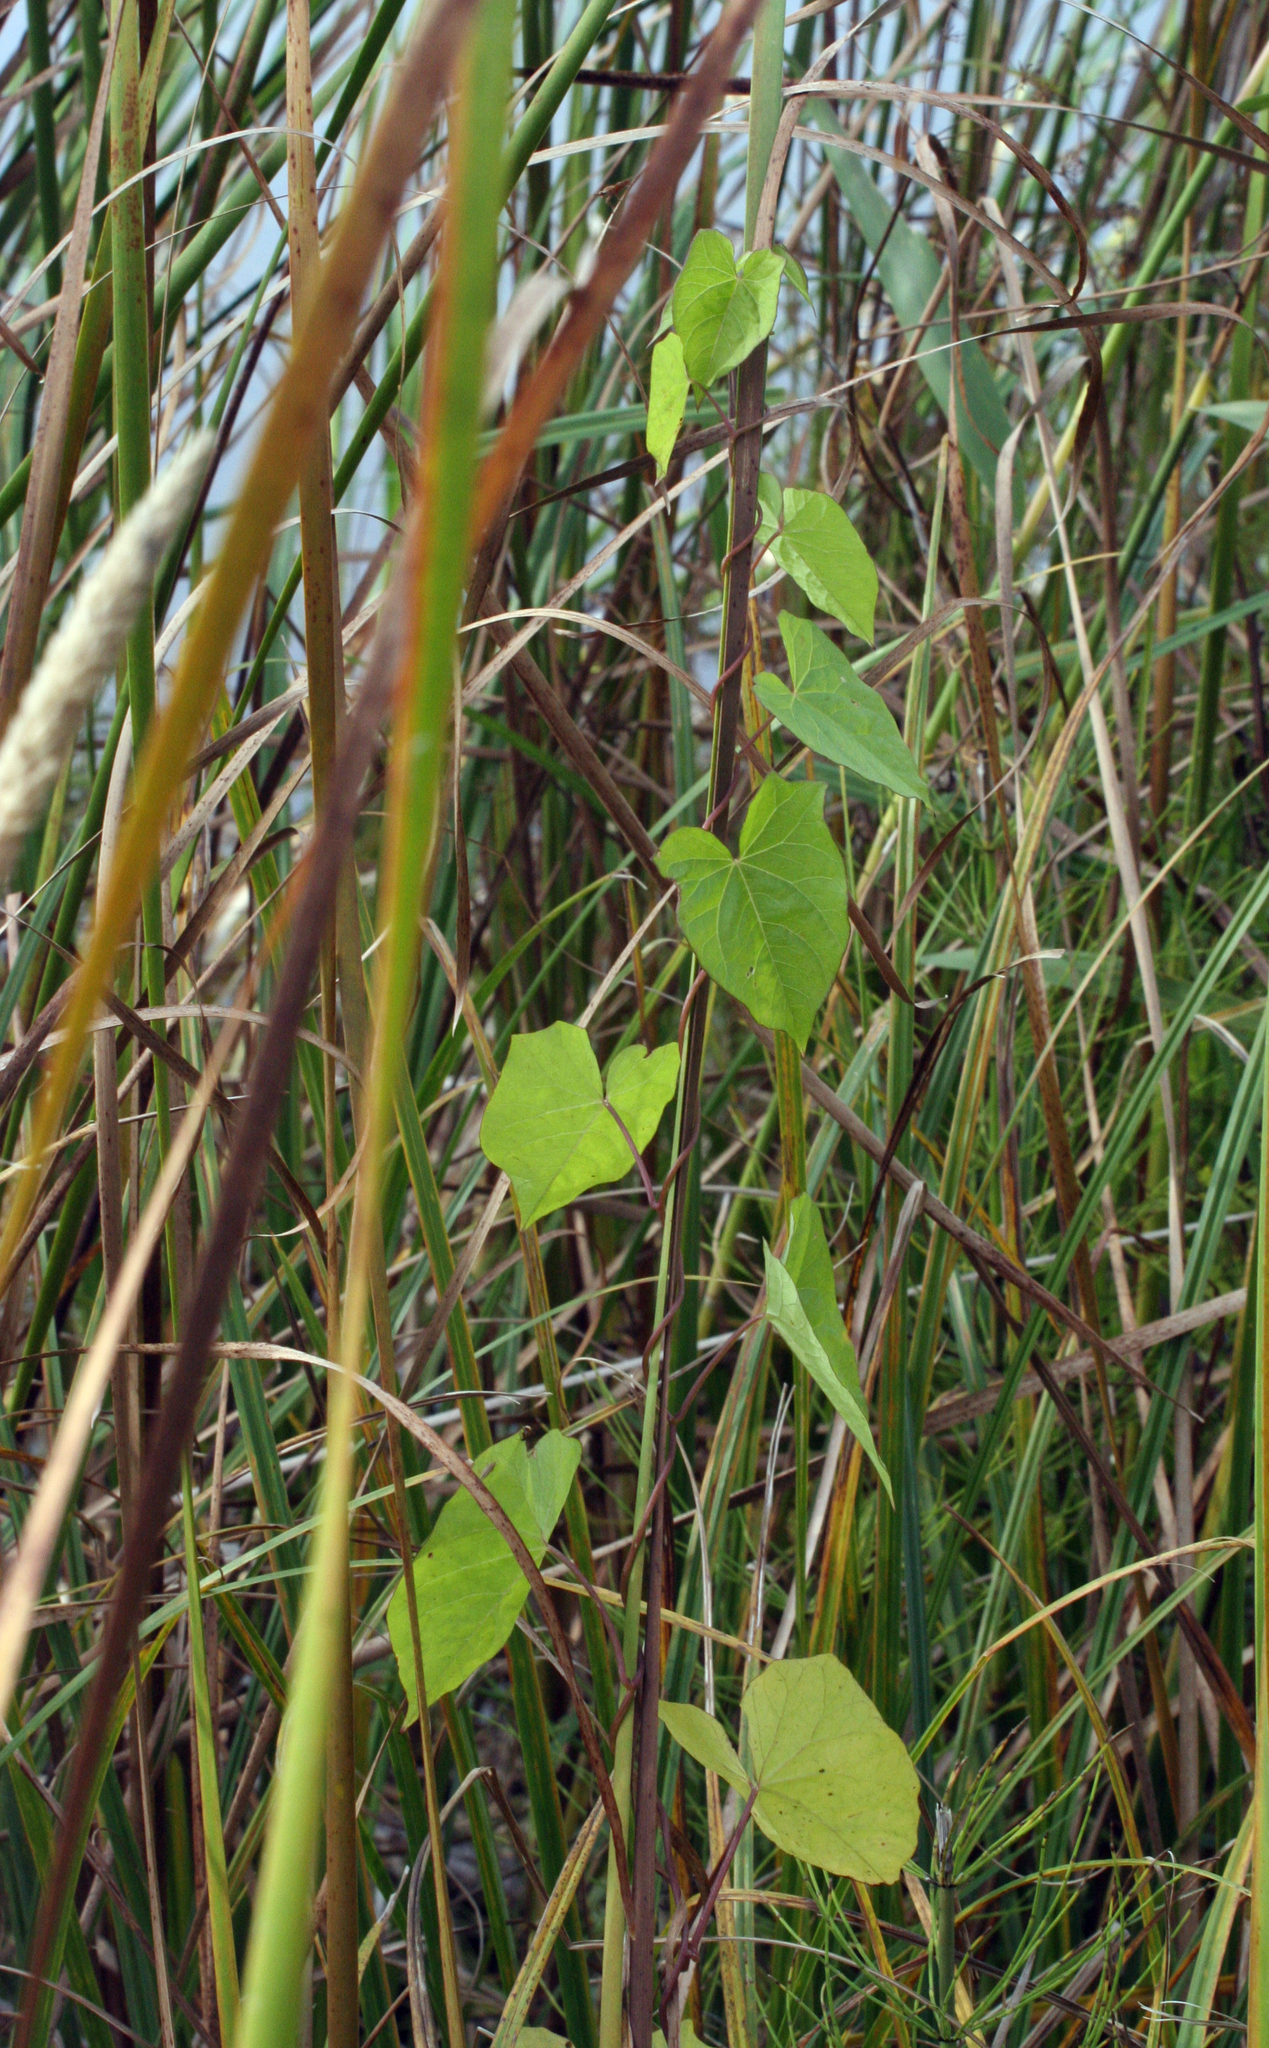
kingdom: Plantae
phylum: Tracheophyta
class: Magnoliopsida
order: Solanales
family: Convolvulaceae
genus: Calystegia
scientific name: Calystegia sepium
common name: Hedge bindweed
